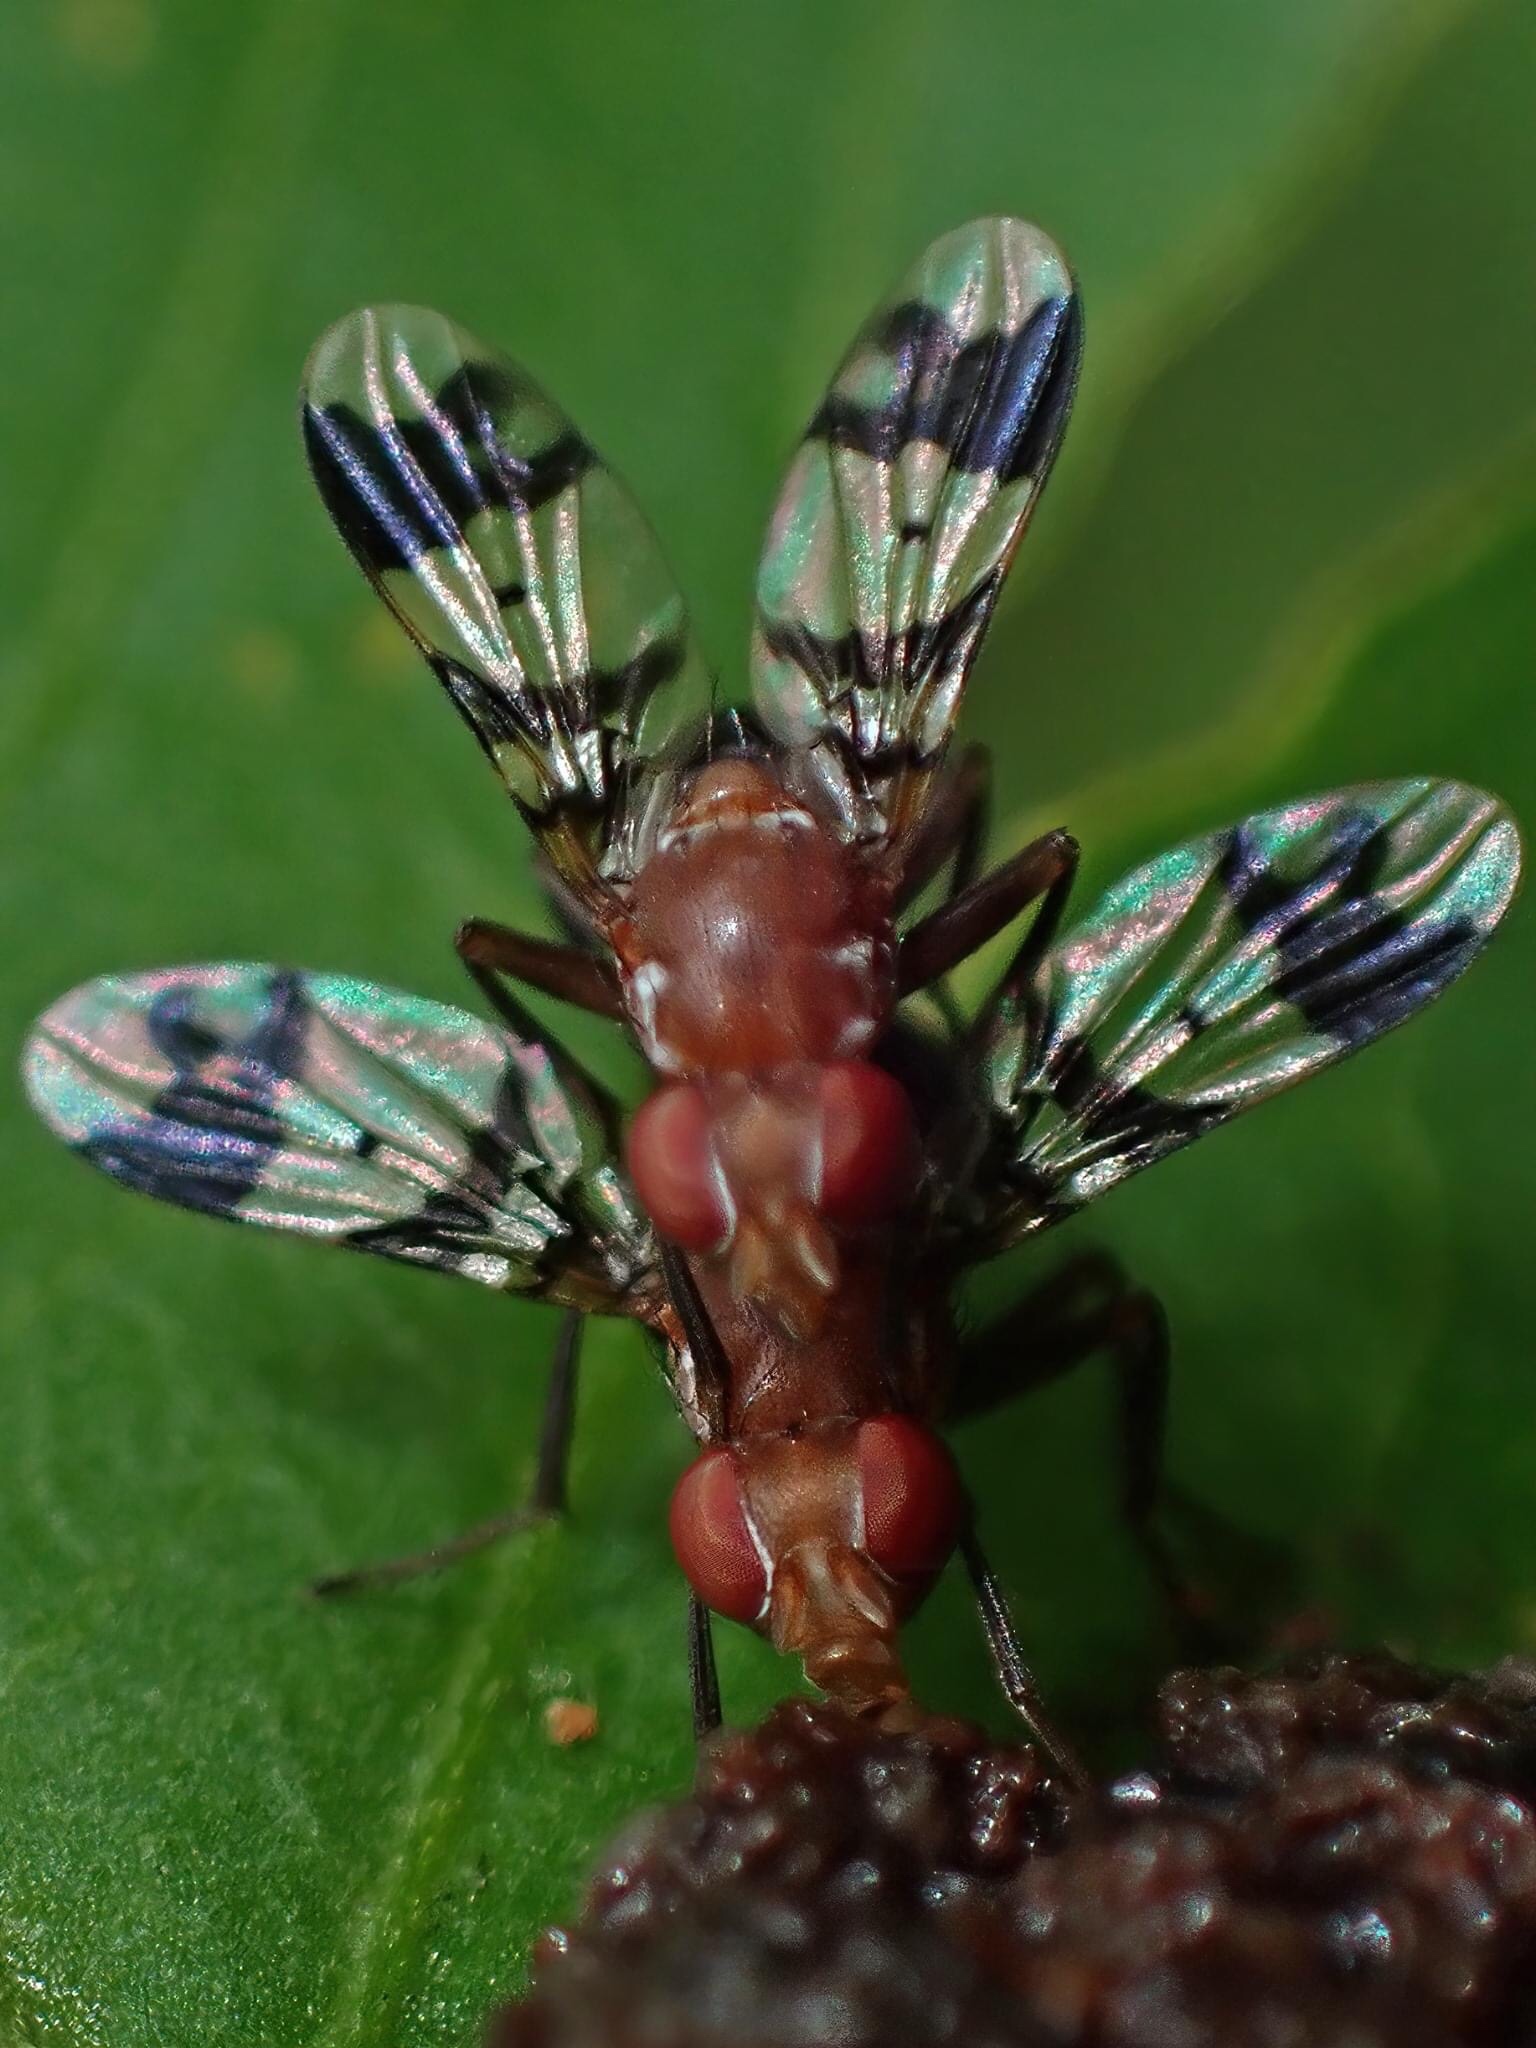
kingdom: Animalia
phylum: Arthropoda
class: Insecta
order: Diptera
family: Richardiidae
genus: Epiplatea
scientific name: Epiplatea erosa
